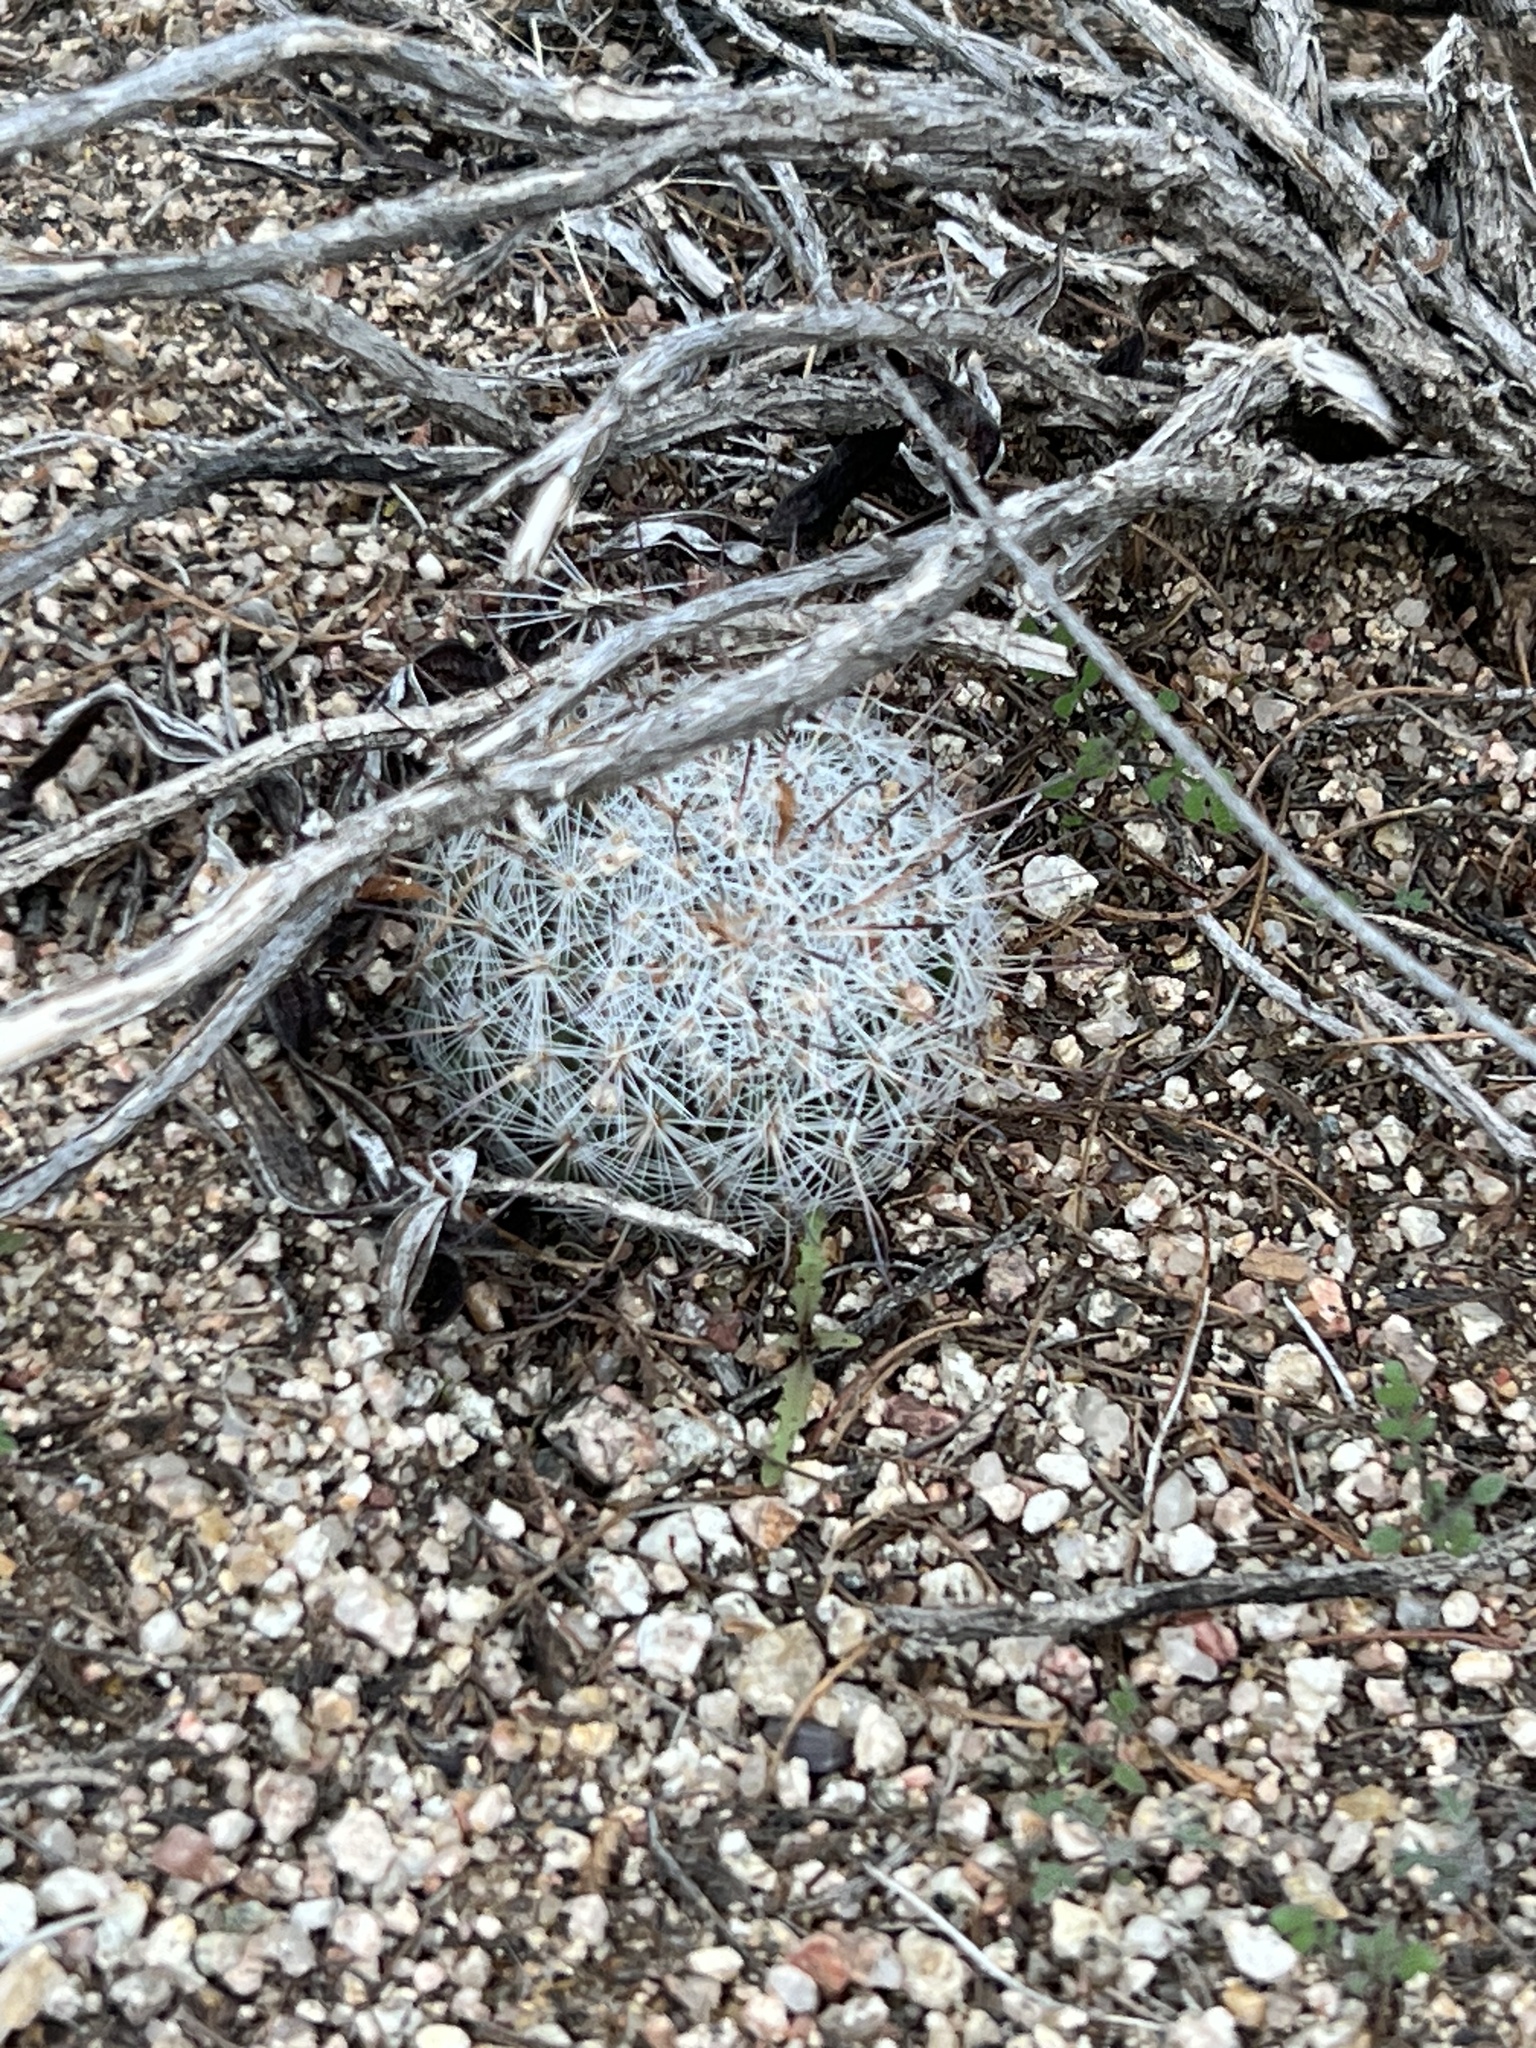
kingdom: Plantae
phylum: Tracheophyta
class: Magnoliopsida
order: Caryophyllales
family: Cactaceae
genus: Cochemiea
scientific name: Cochemiea grahamii
